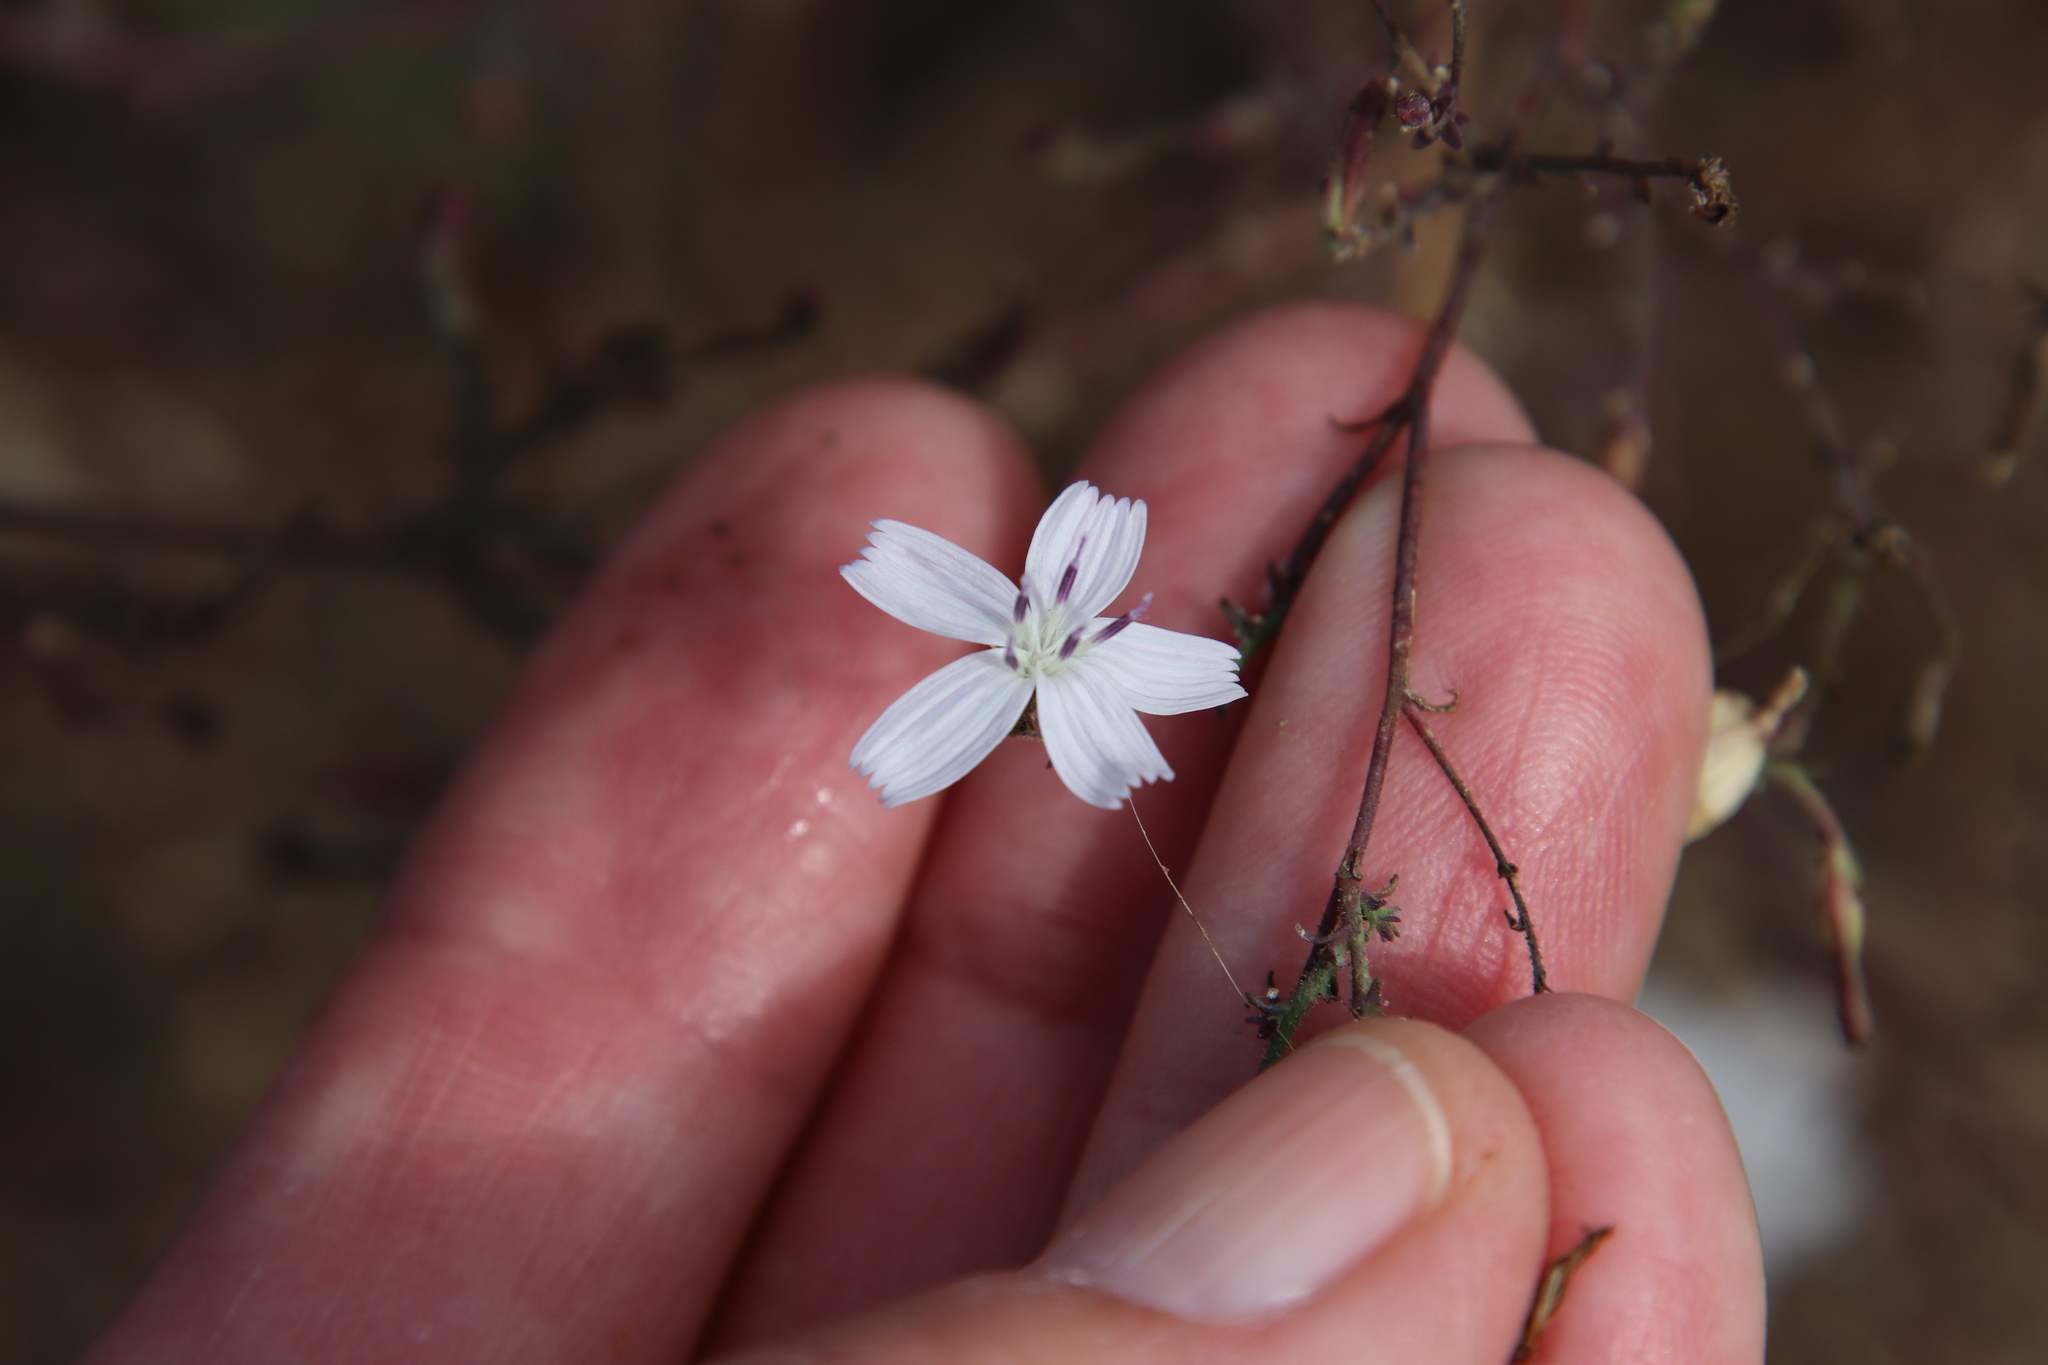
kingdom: Plantae
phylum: Tracheophyta
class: Magnoliopsida
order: Asterales
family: Asteraceae
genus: Stephanomeria
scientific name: Stephanomeria exigua
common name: Small wirelettuce
